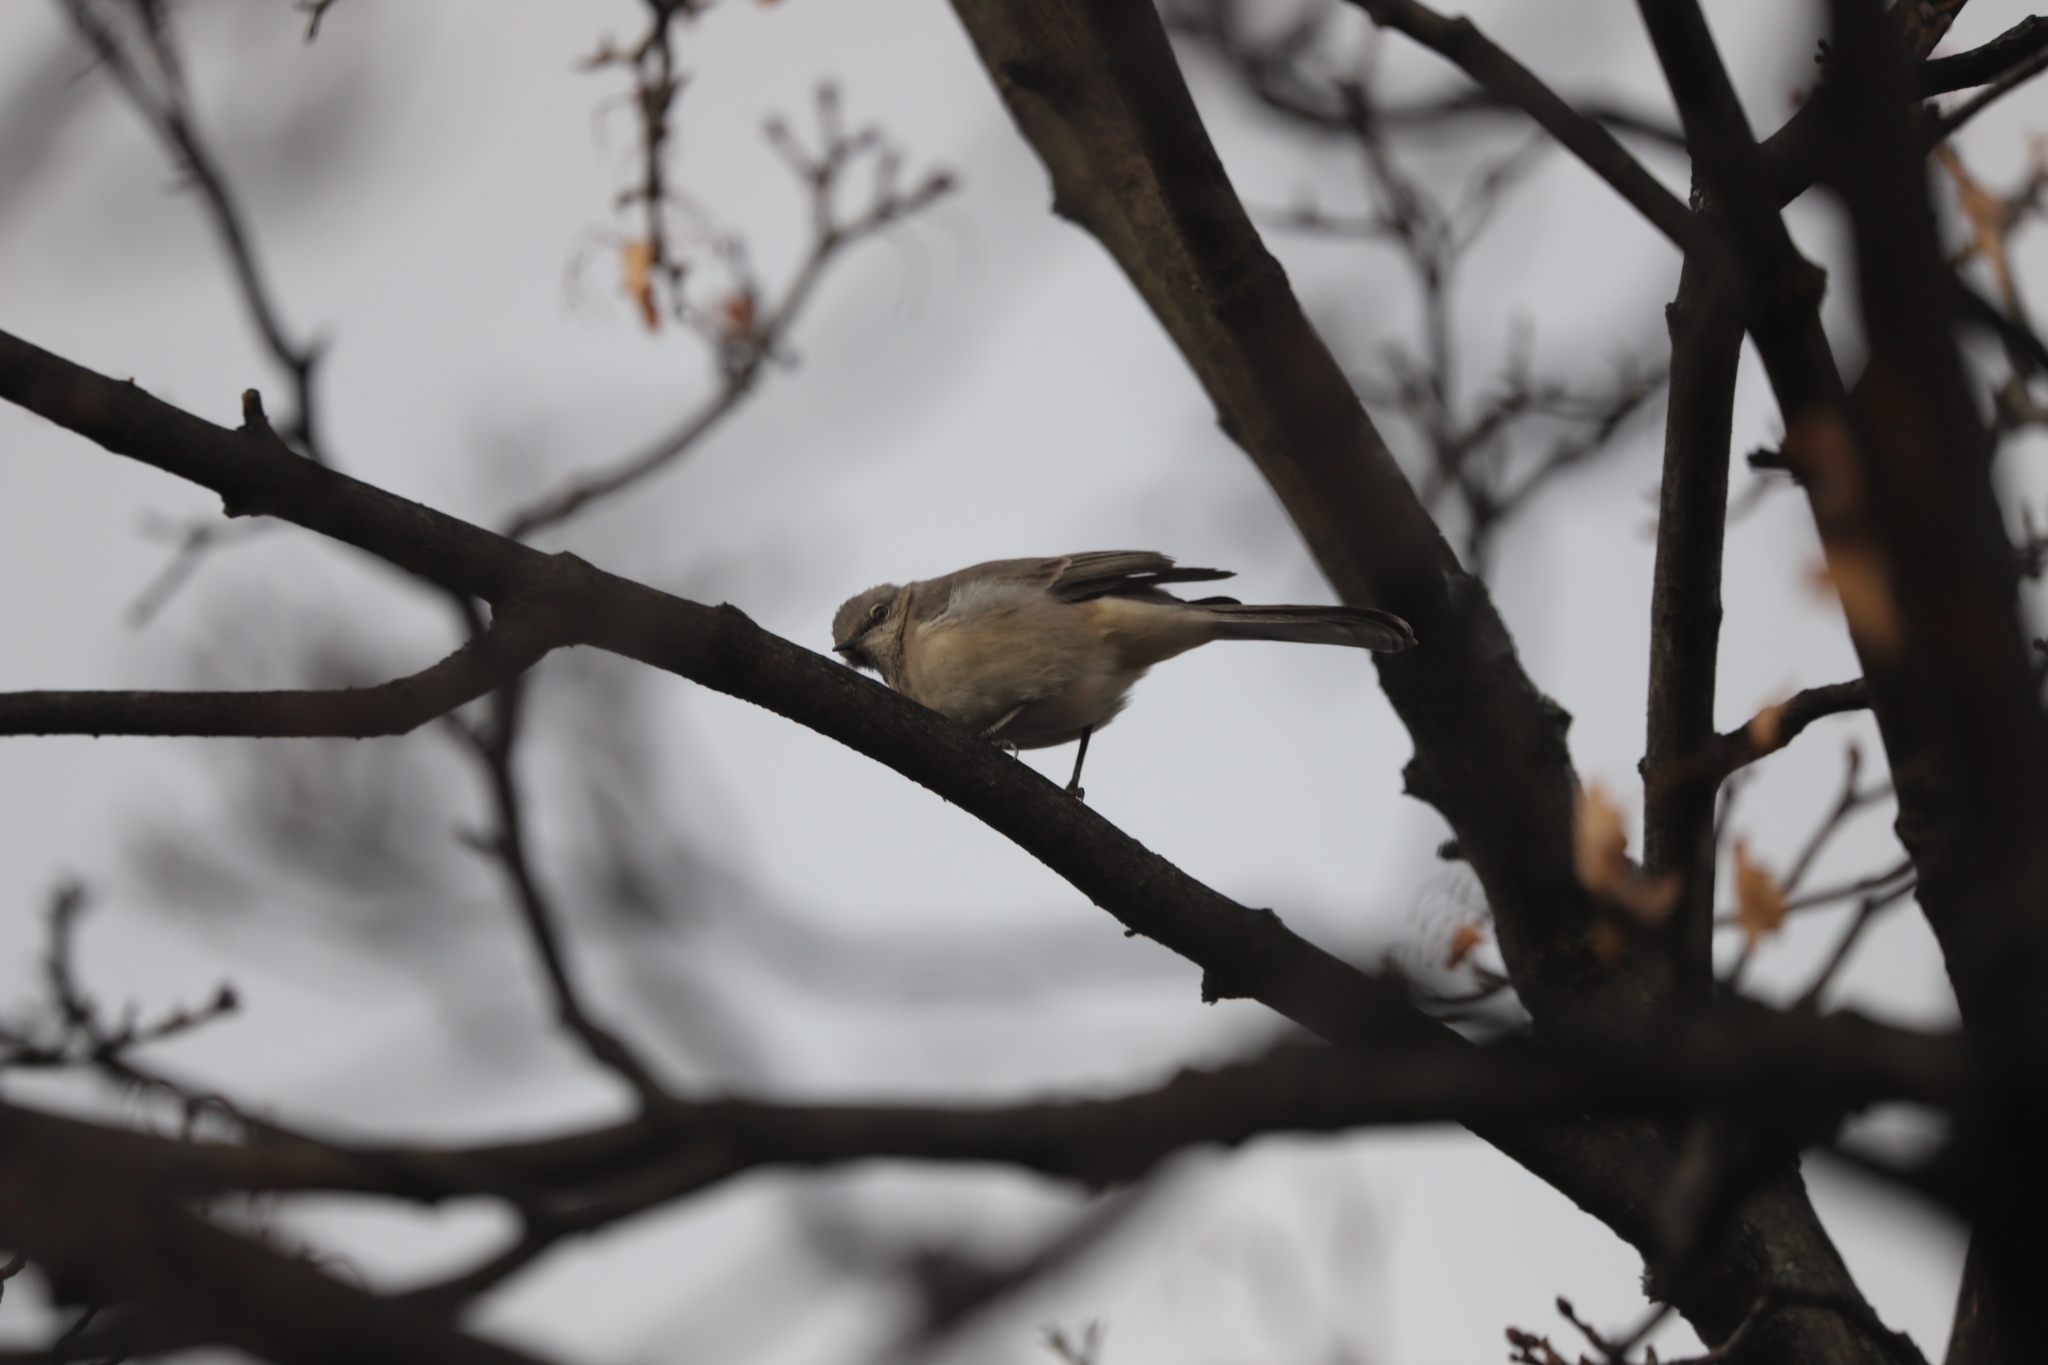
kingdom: Animalia
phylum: Chordata
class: Aves
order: Passeriformes
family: Mimidae
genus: Mimus
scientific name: Mimus polyglottos
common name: Northern mockingbird
